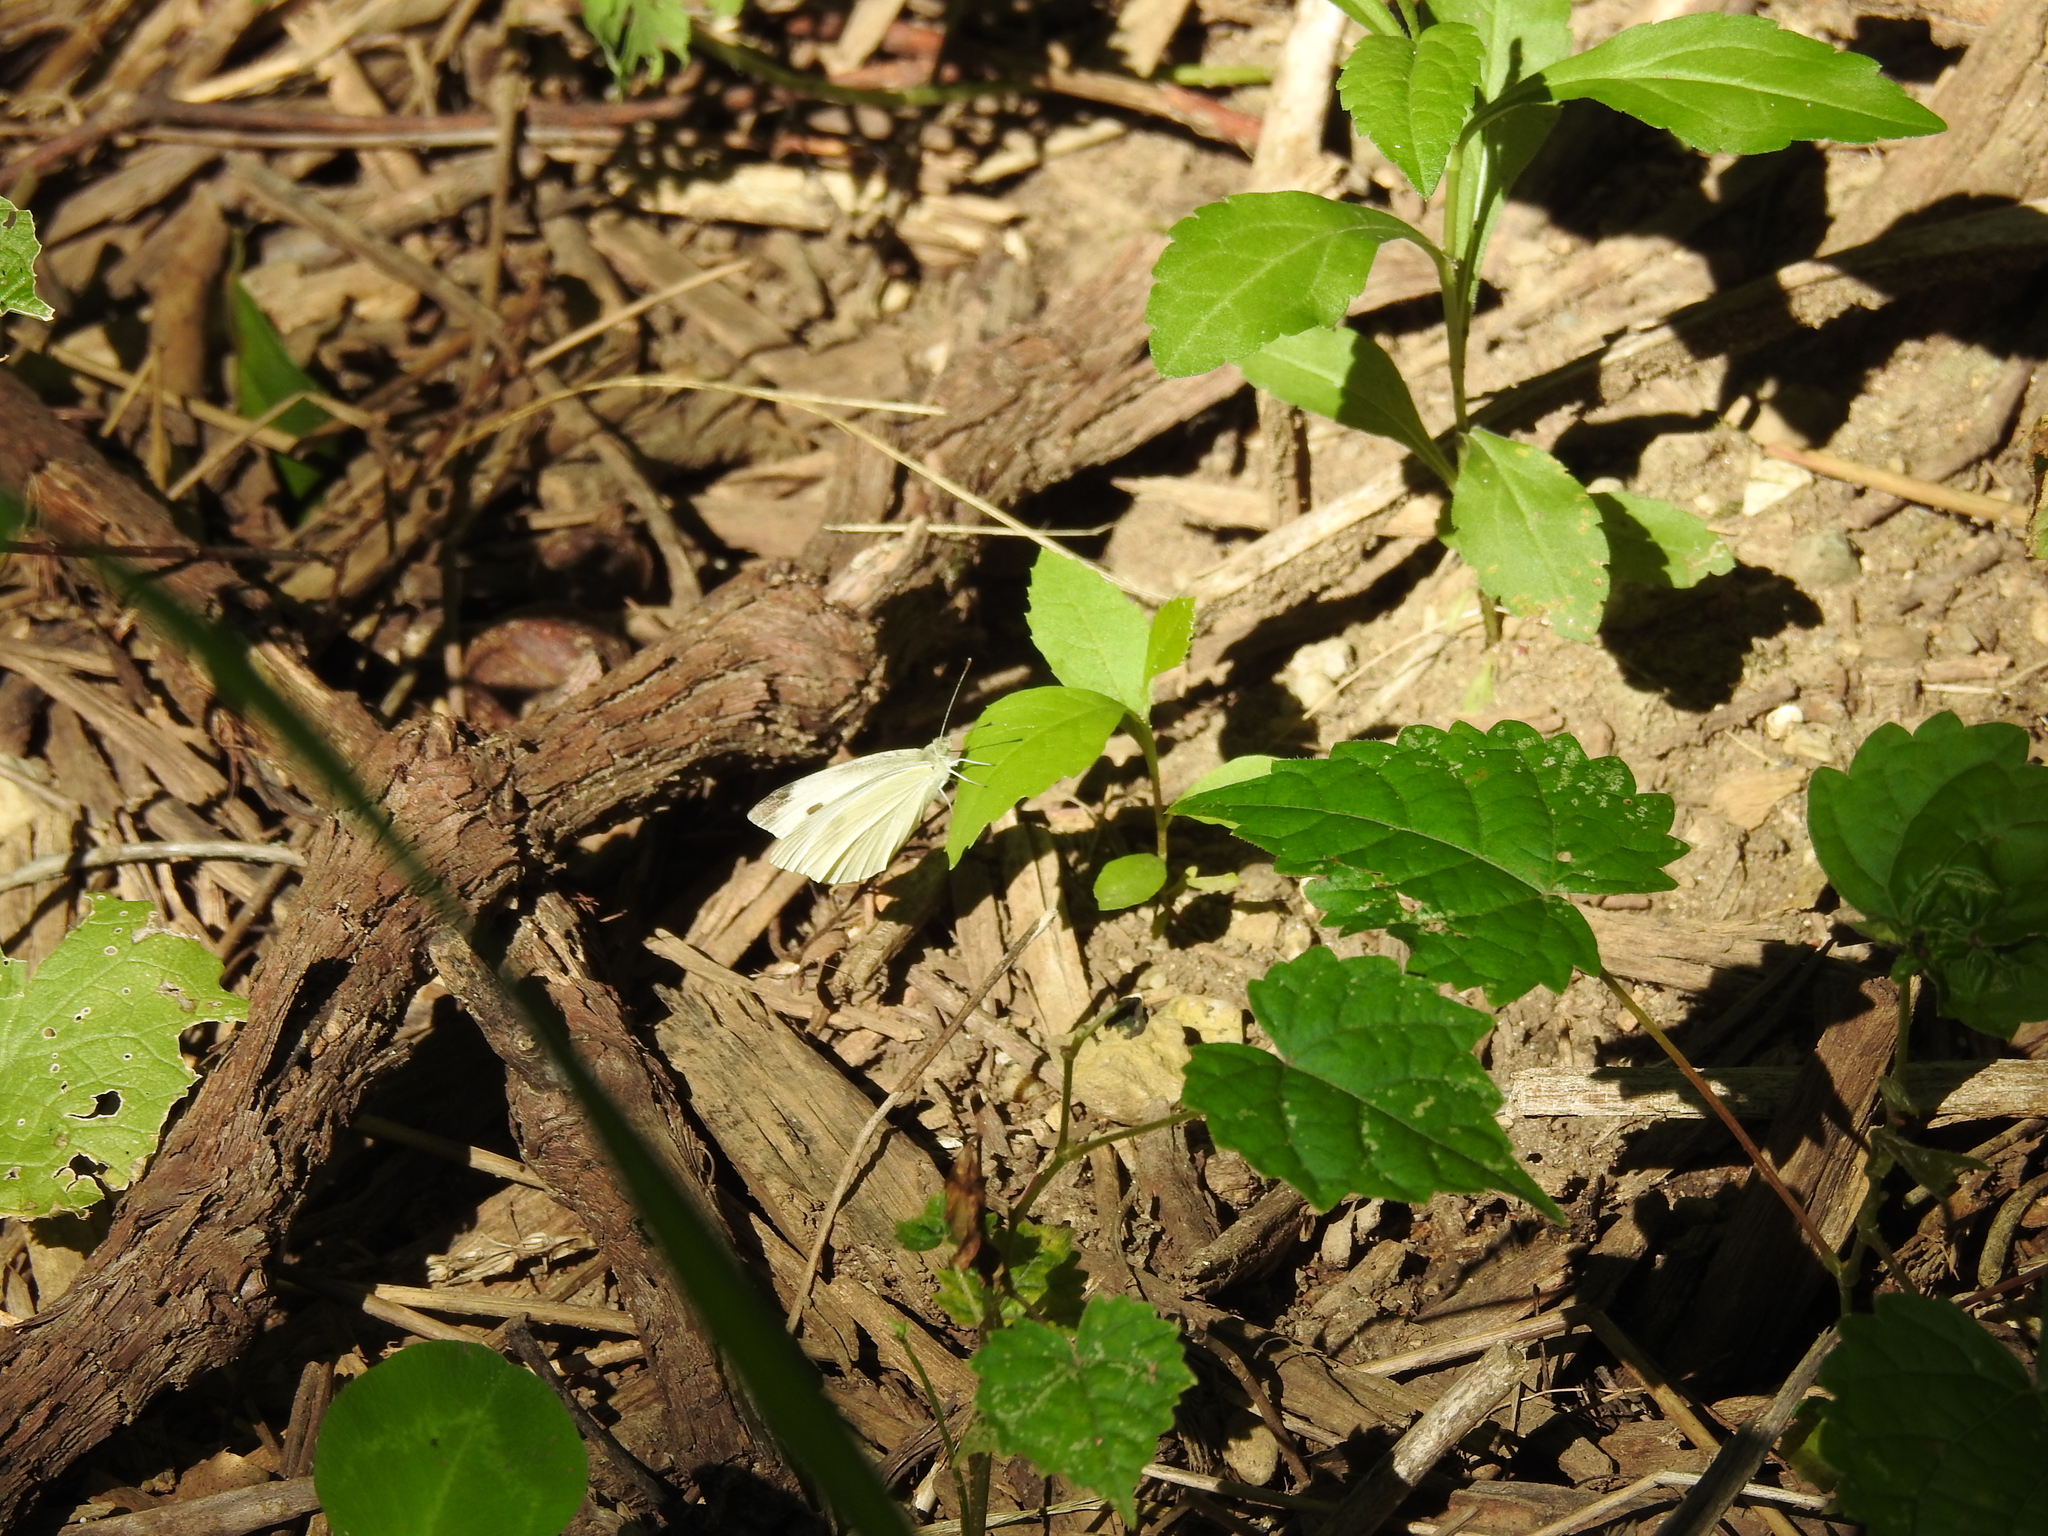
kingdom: Animalia
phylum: Arthropoda
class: Insecta
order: Lepidoptera
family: Pieridae
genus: Pieris
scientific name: Pieris rapae
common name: Small white
